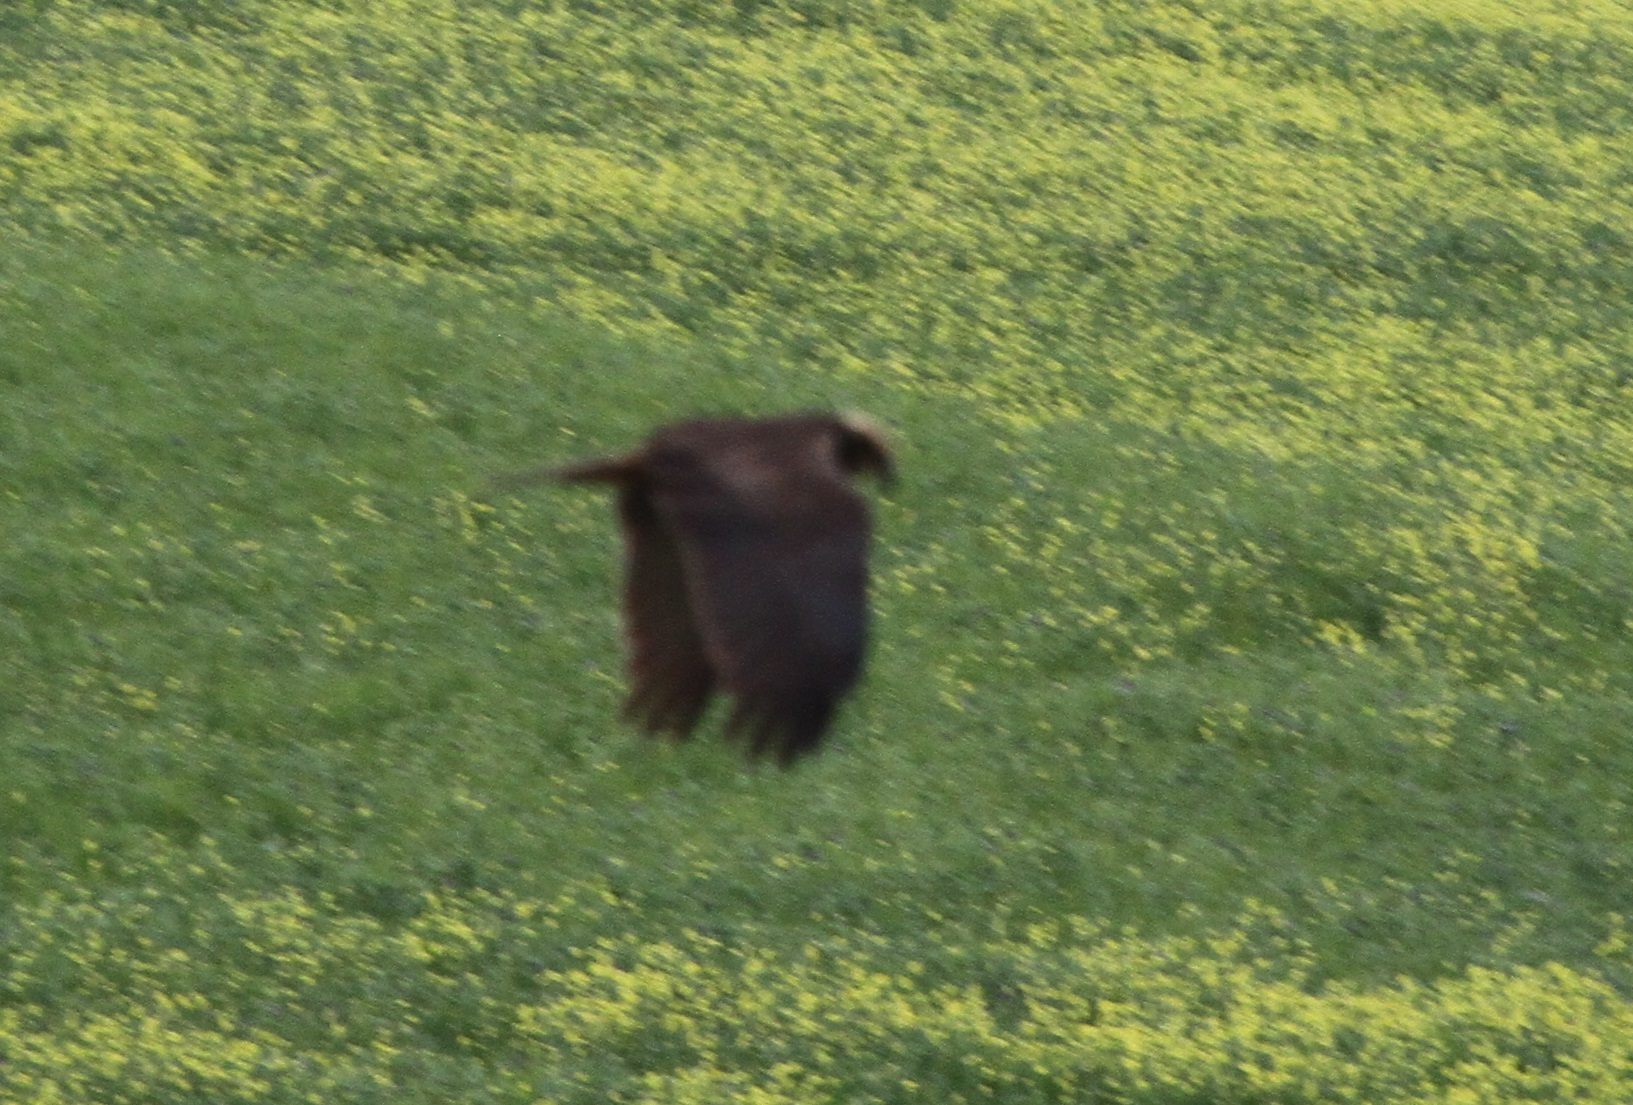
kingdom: Animalia
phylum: Chordata
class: Aves
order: Accipitriformes
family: Accipitridae
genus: Circus
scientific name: Circus aeruginosus
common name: Western marsh harrier
